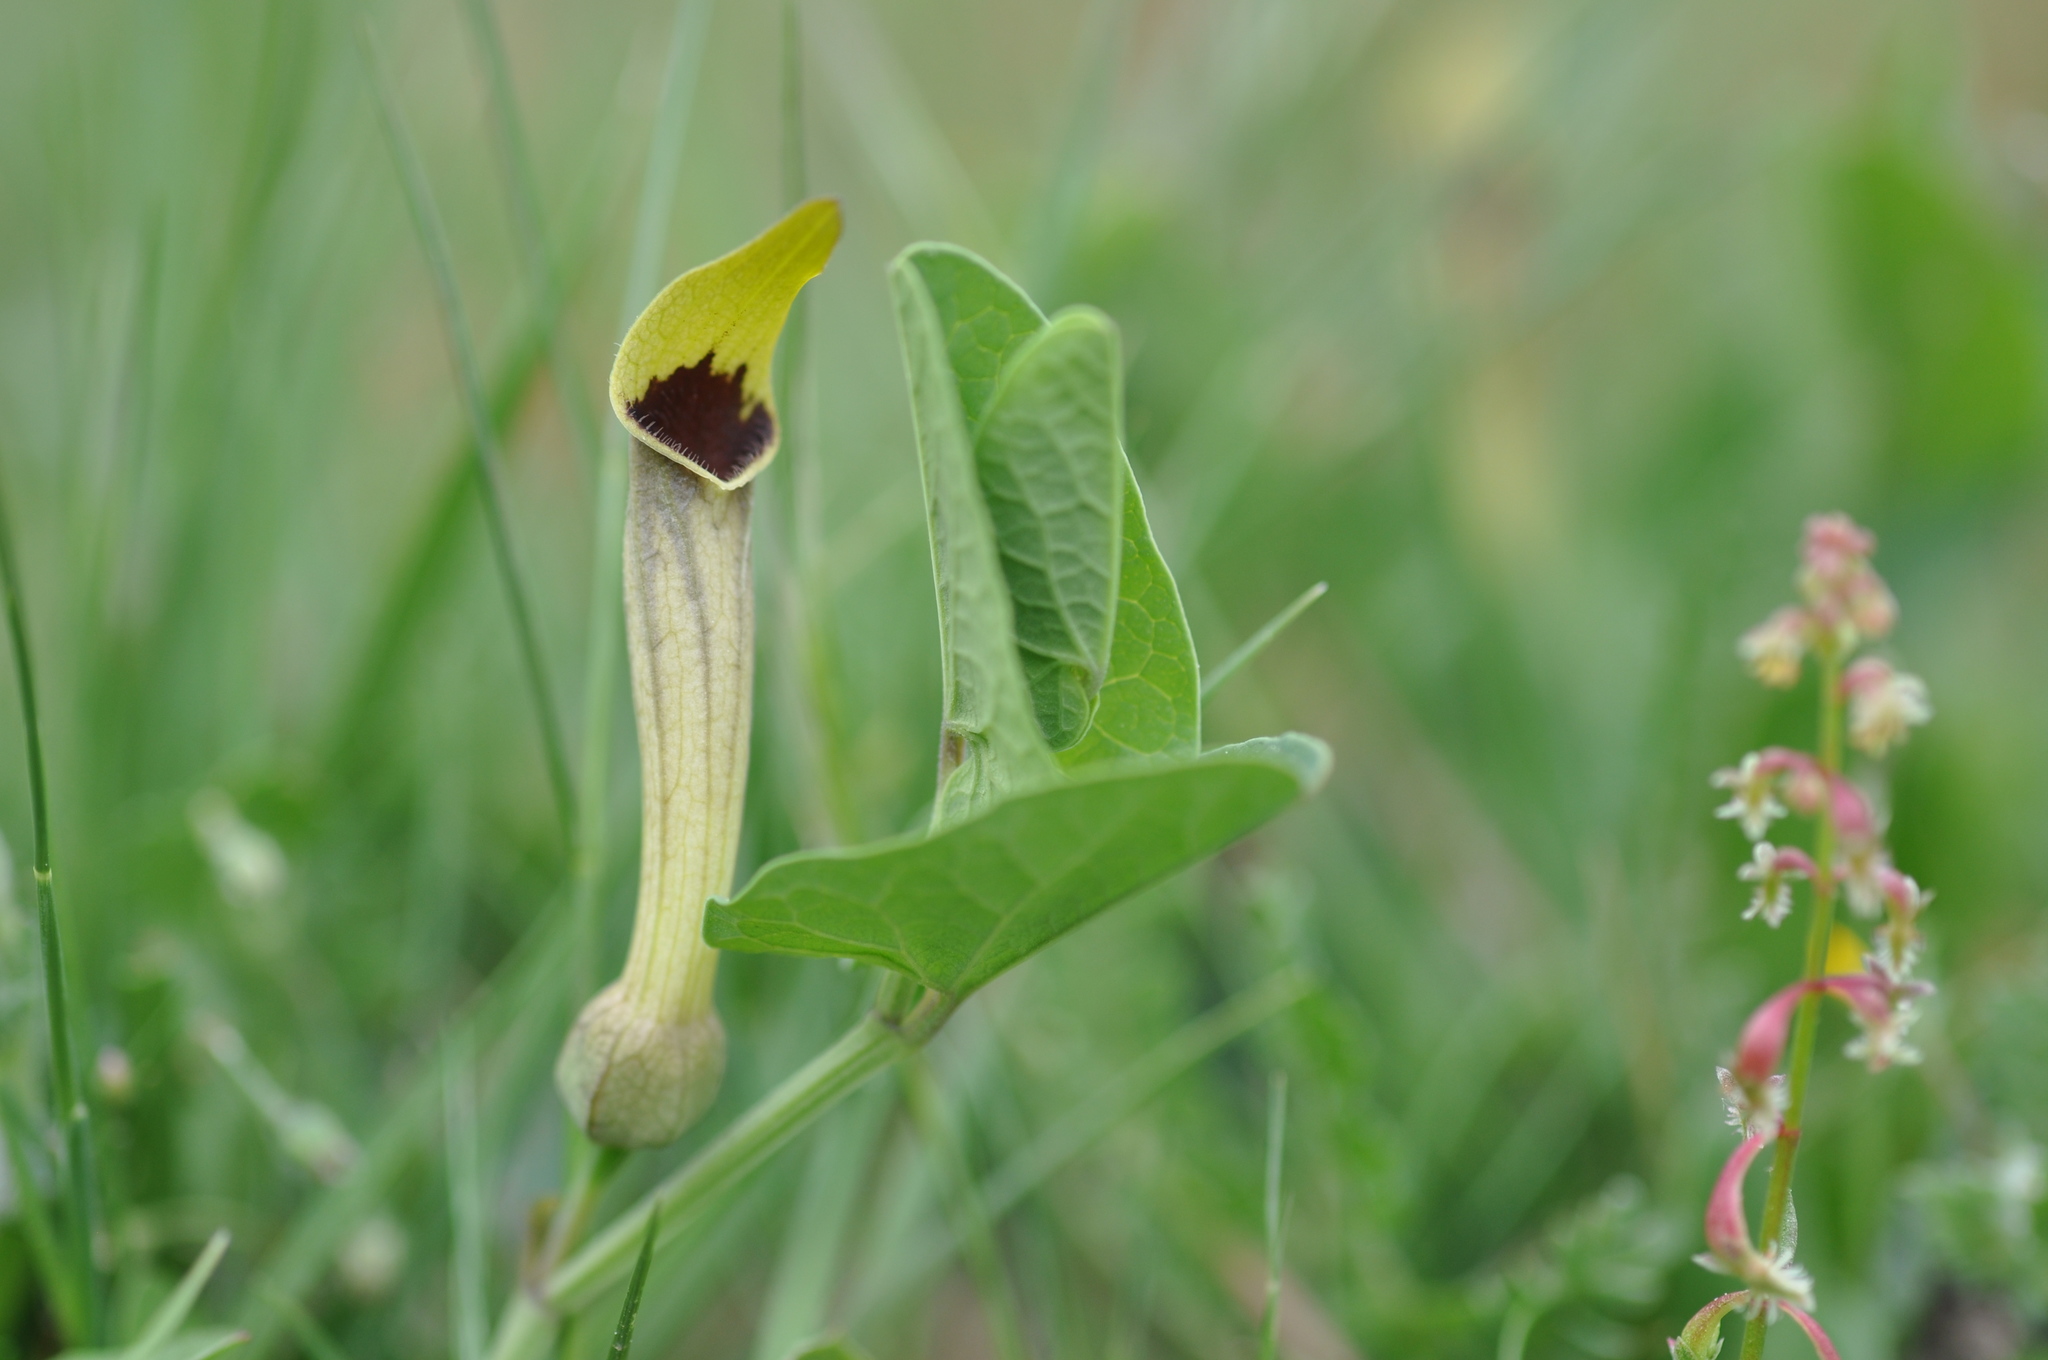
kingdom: Plantae
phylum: Tracheophyta
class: Magnoliopsida
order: Piperales
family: Aristolochiaceae
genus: Aristolochia
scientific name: Aristolochia paucinervis
